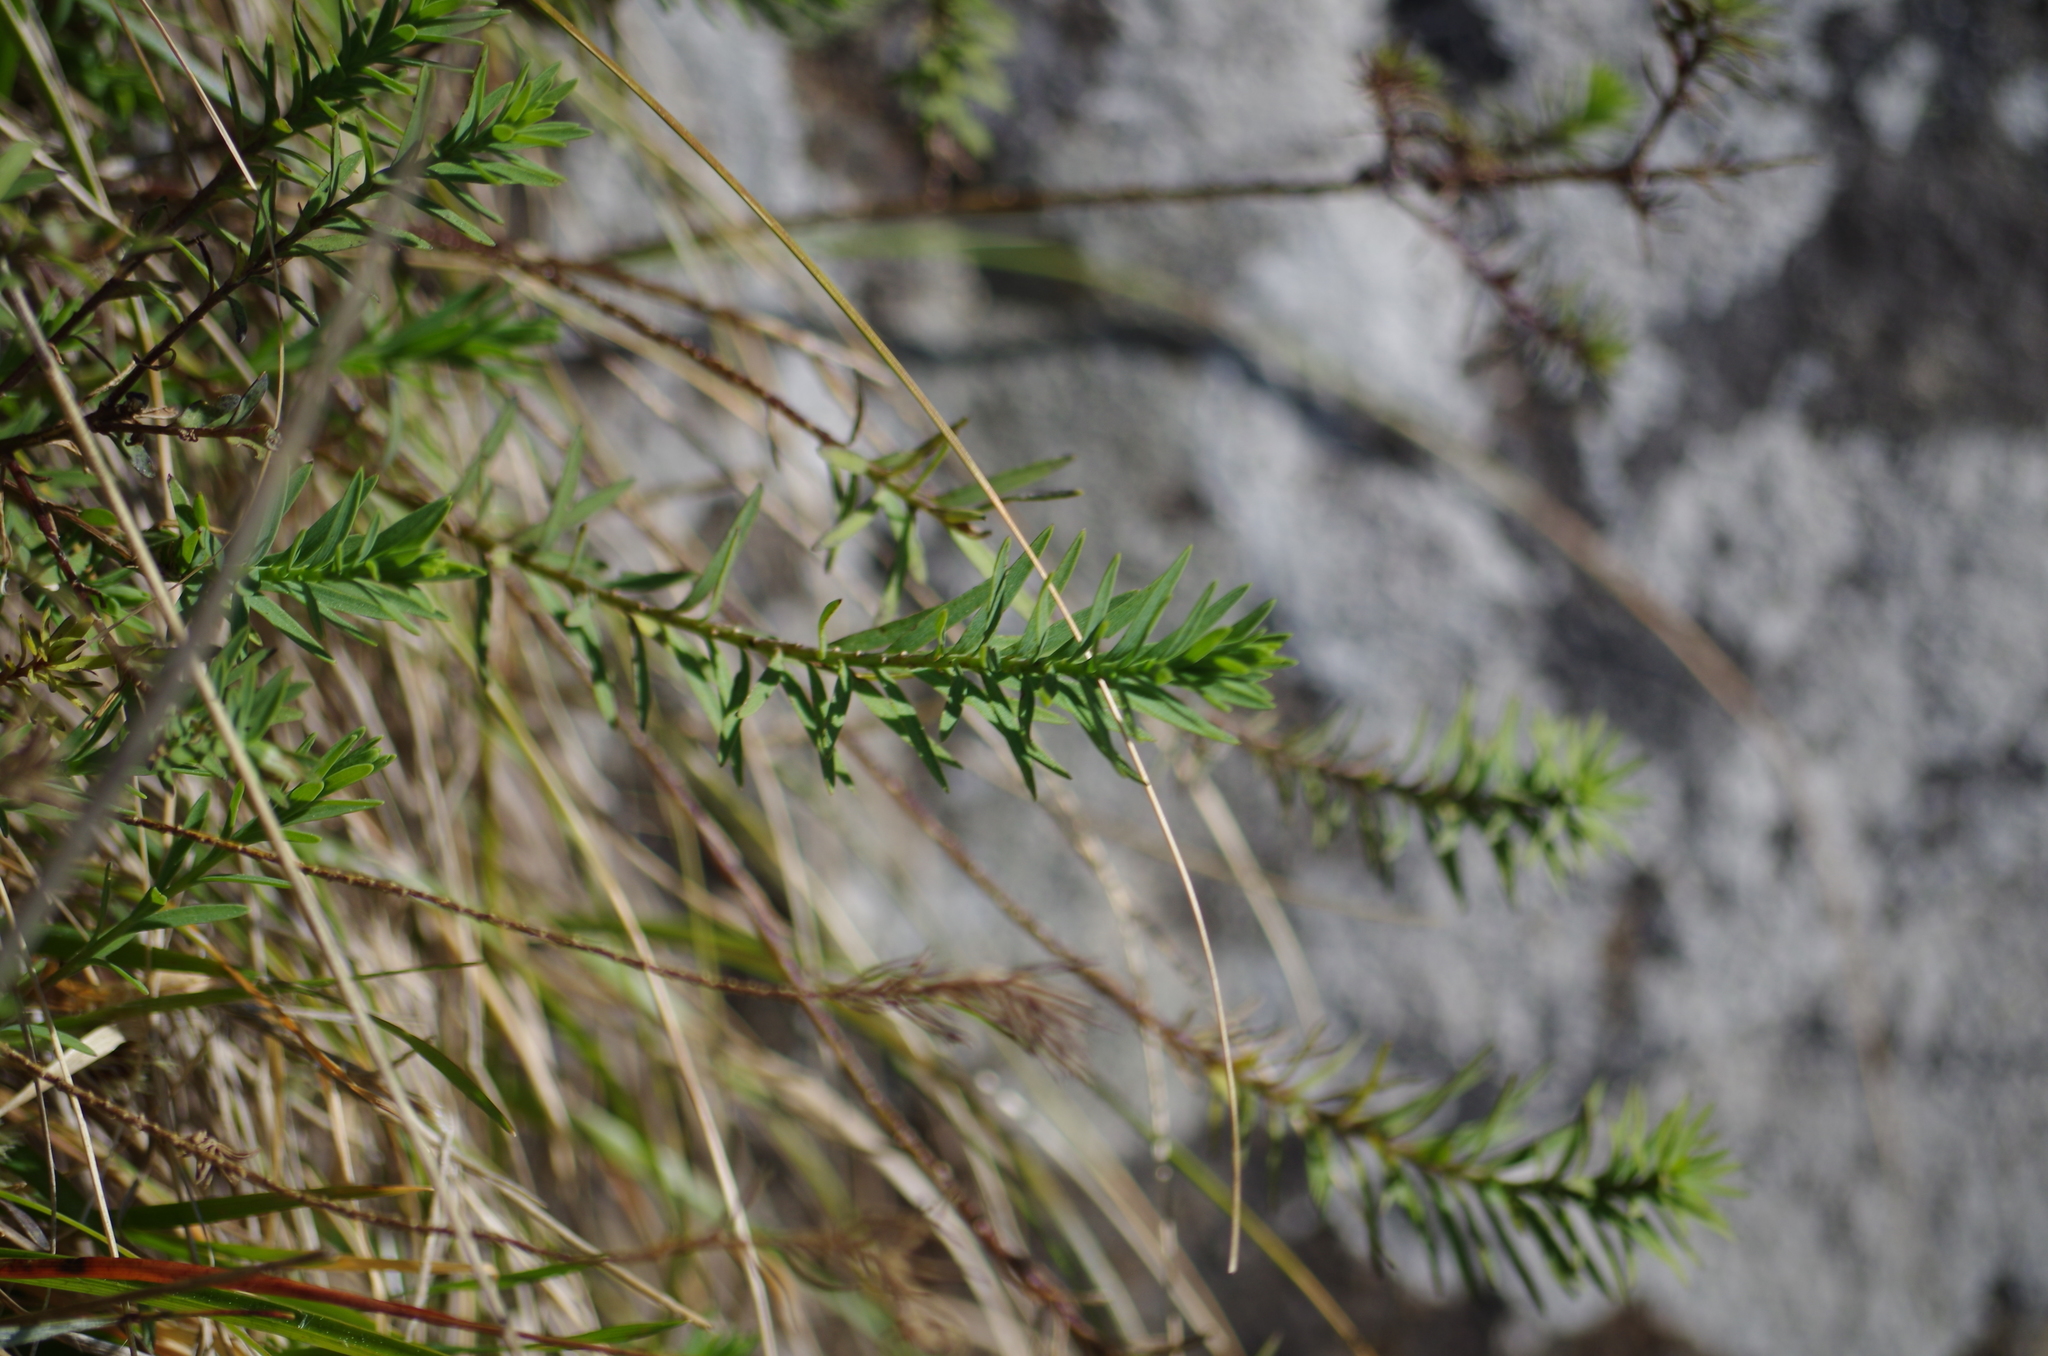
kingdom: Plantae
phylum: Tracheophyta
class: Magnoliopsida
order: Malpighiales
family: Linaceae
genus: Linum
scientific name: Linum monogynum
